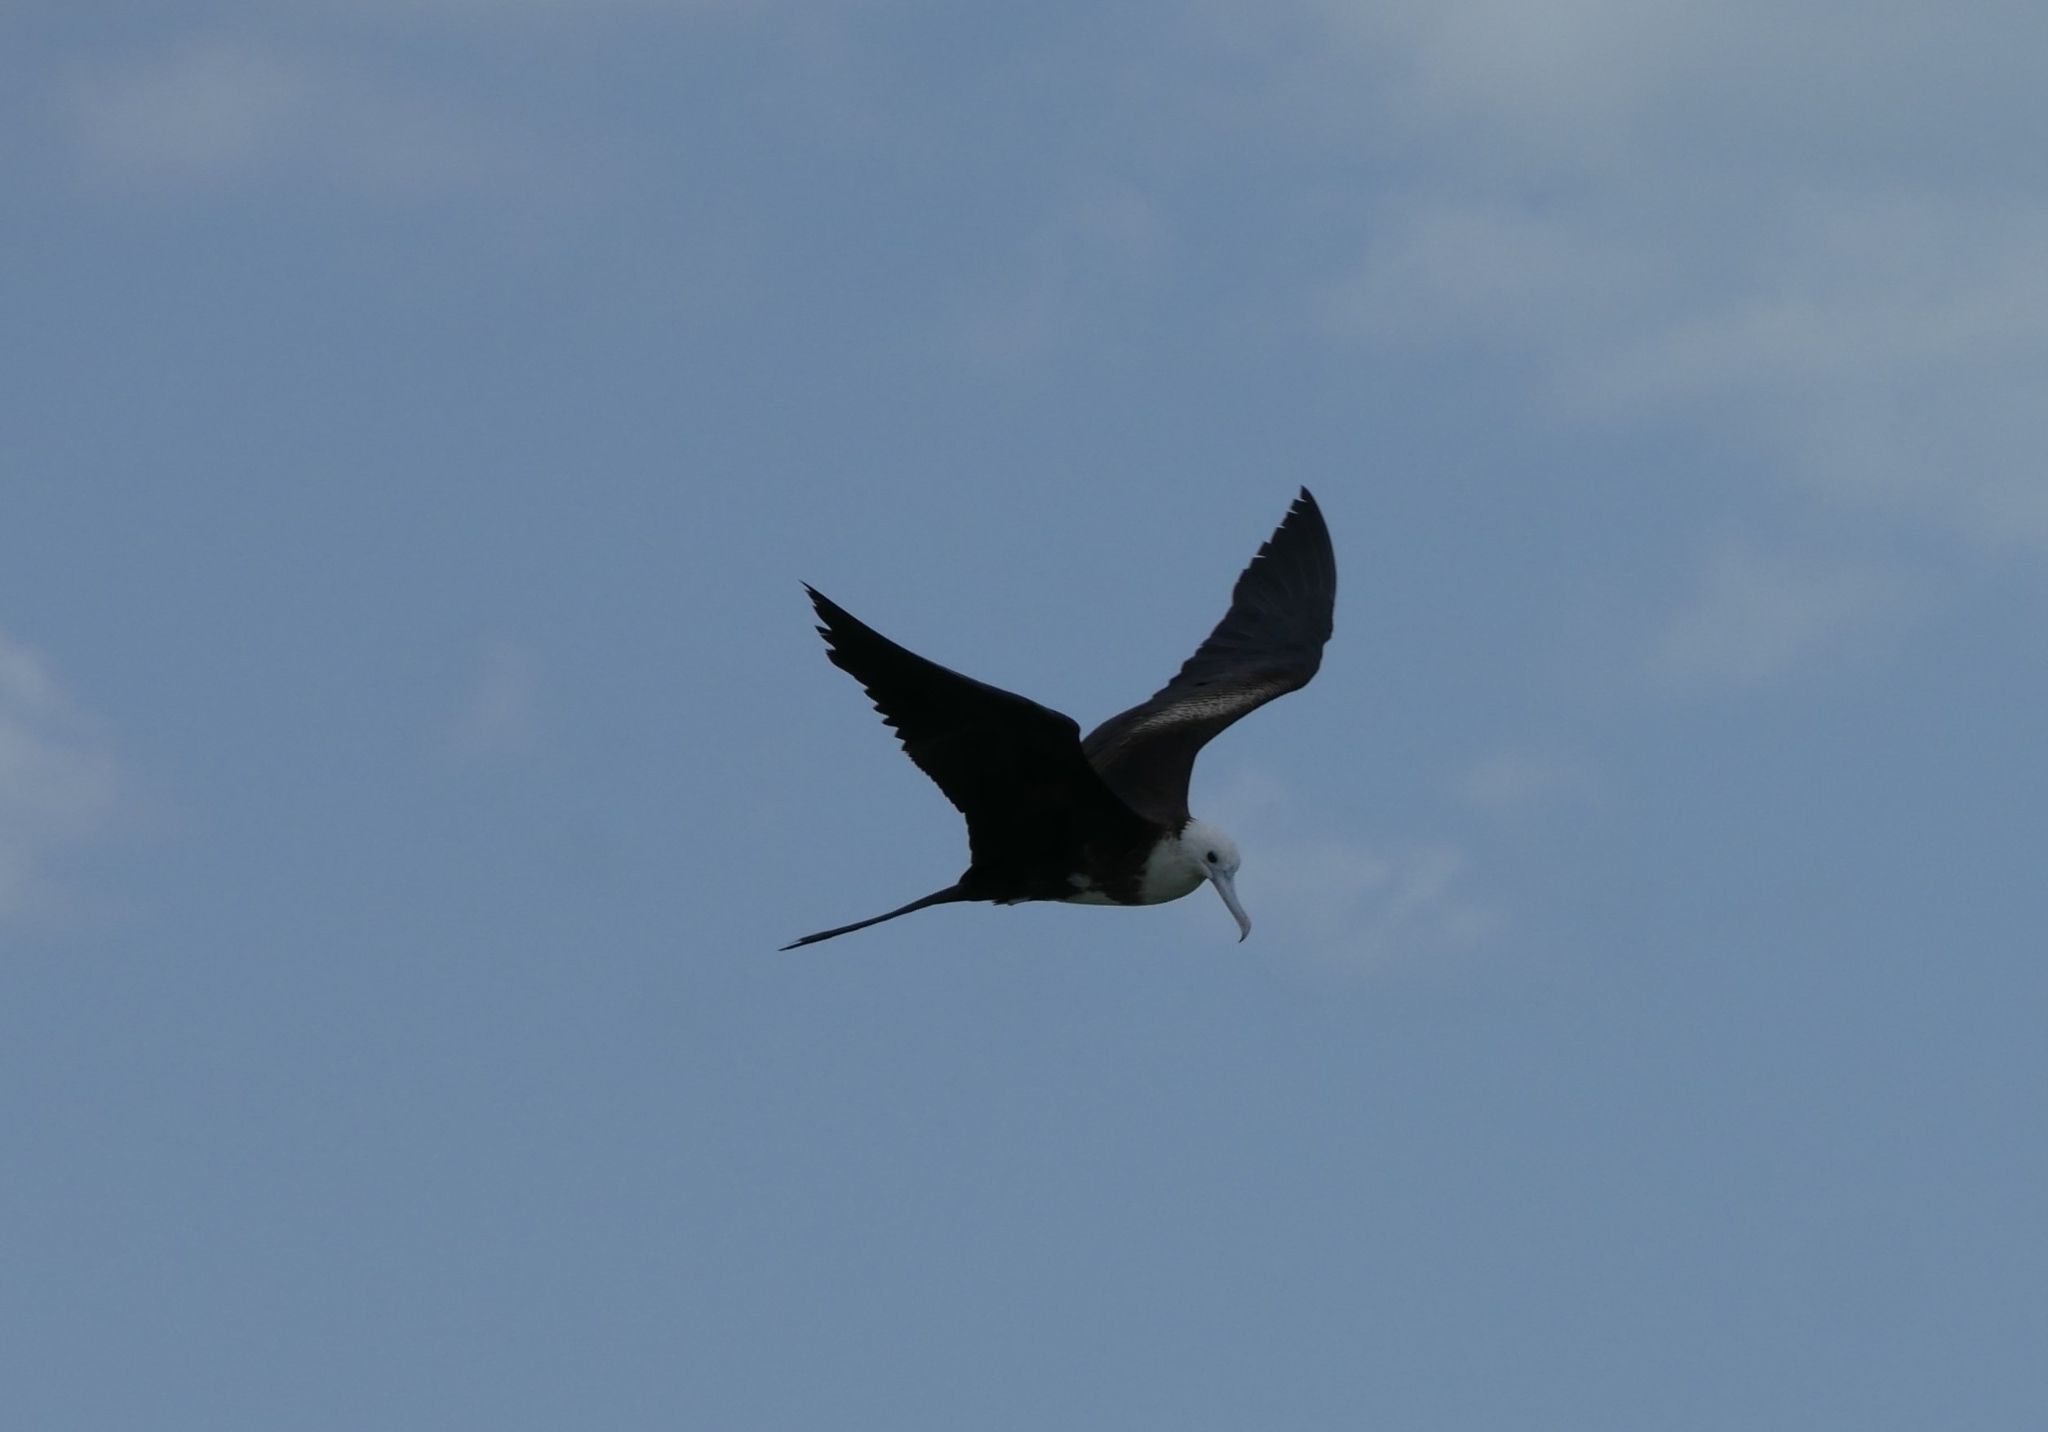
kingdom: Animalia
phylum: Chordata
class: Aves
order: Suliformes
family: Fregatidae
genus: Fregata
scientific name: Fregata magnificens
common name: Magnificent frigatebird
